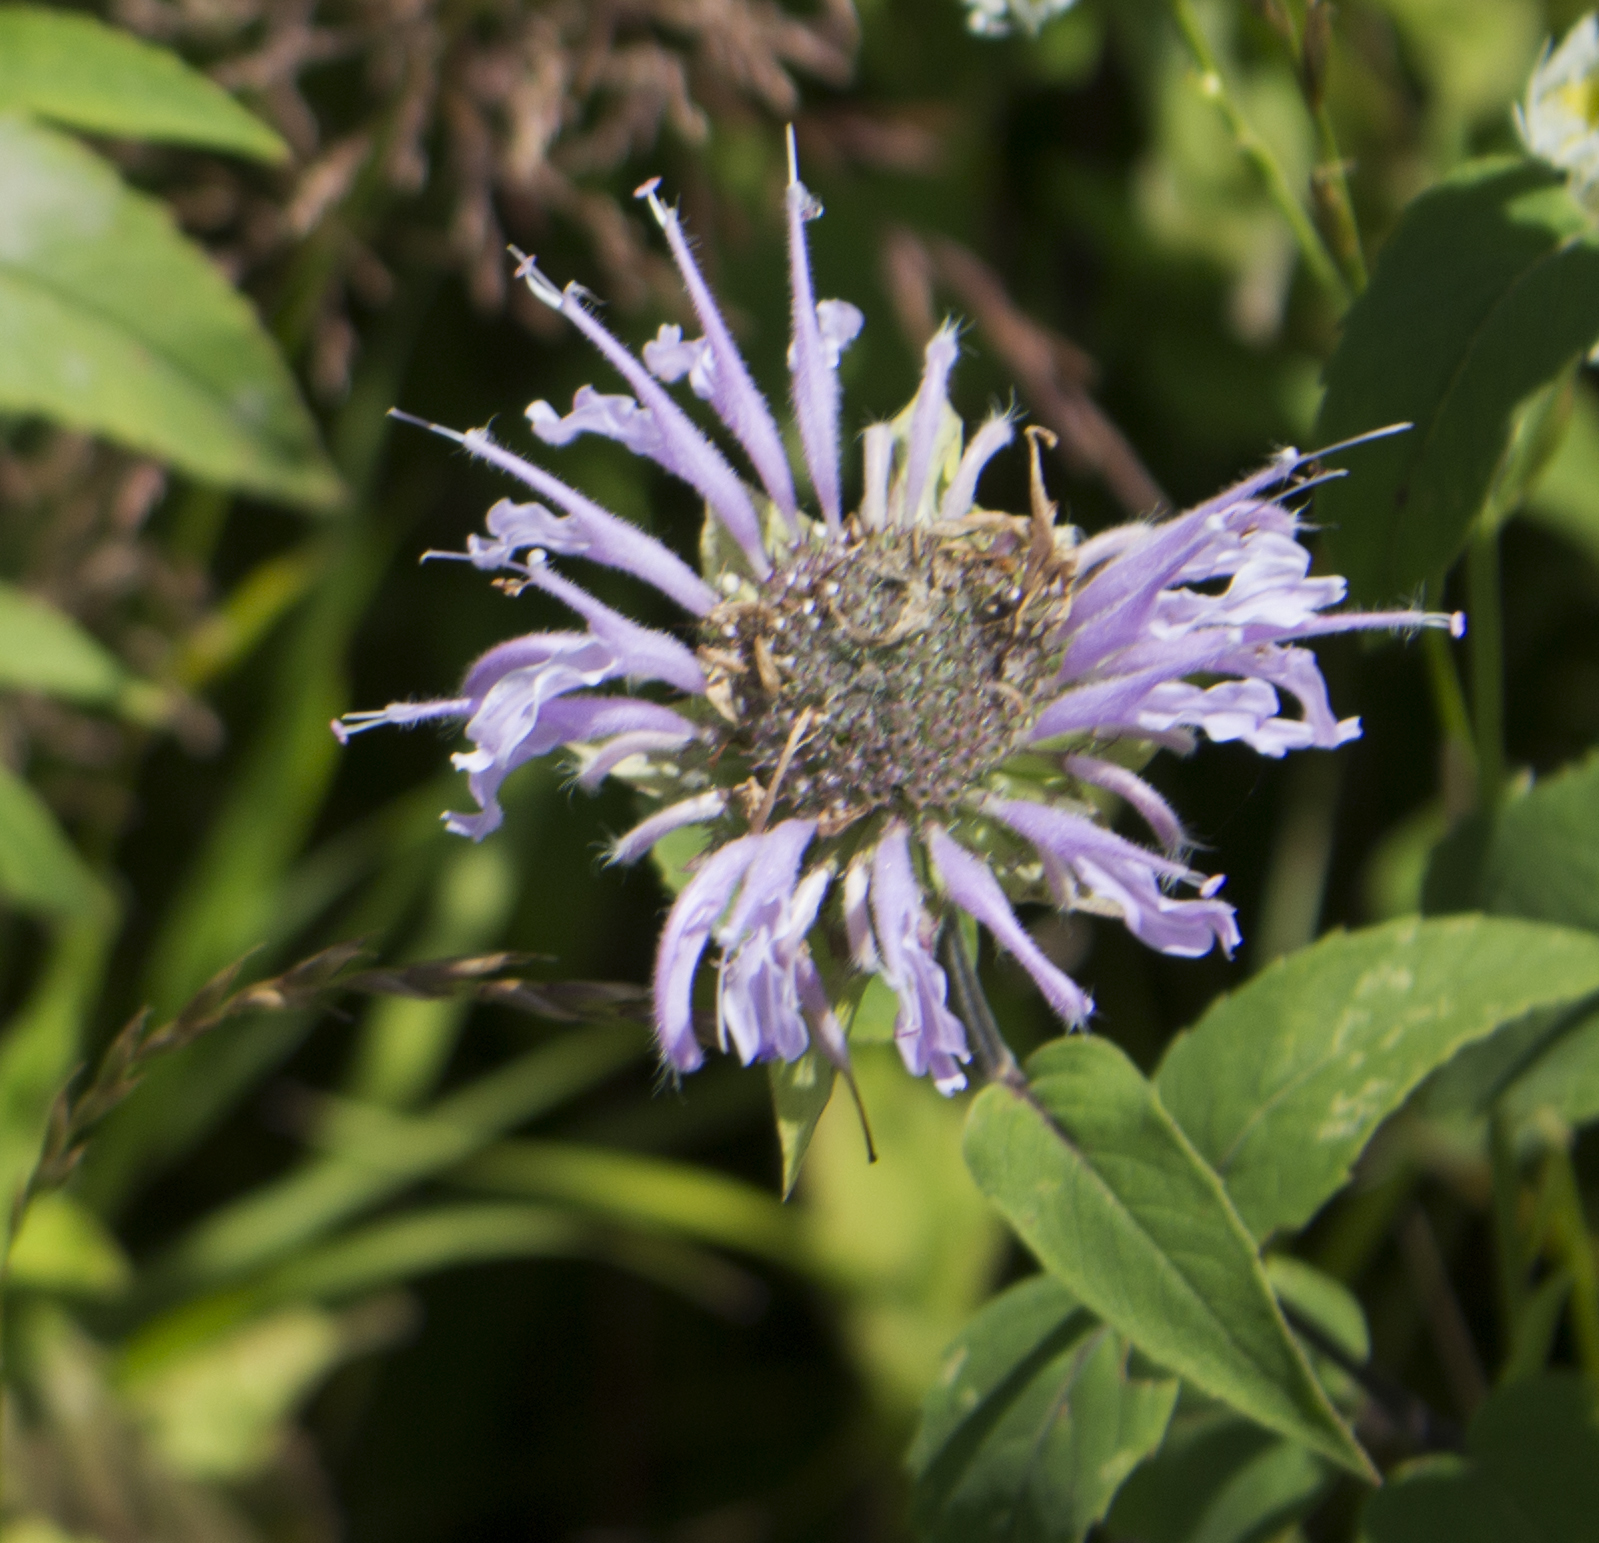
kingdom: Plantae
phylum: Tracheophyta
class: Magnoliopsida
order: Lamiales
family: Lamiaceae
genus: Monarda
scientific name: Monarda fistulosa
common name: Purple beebalm
